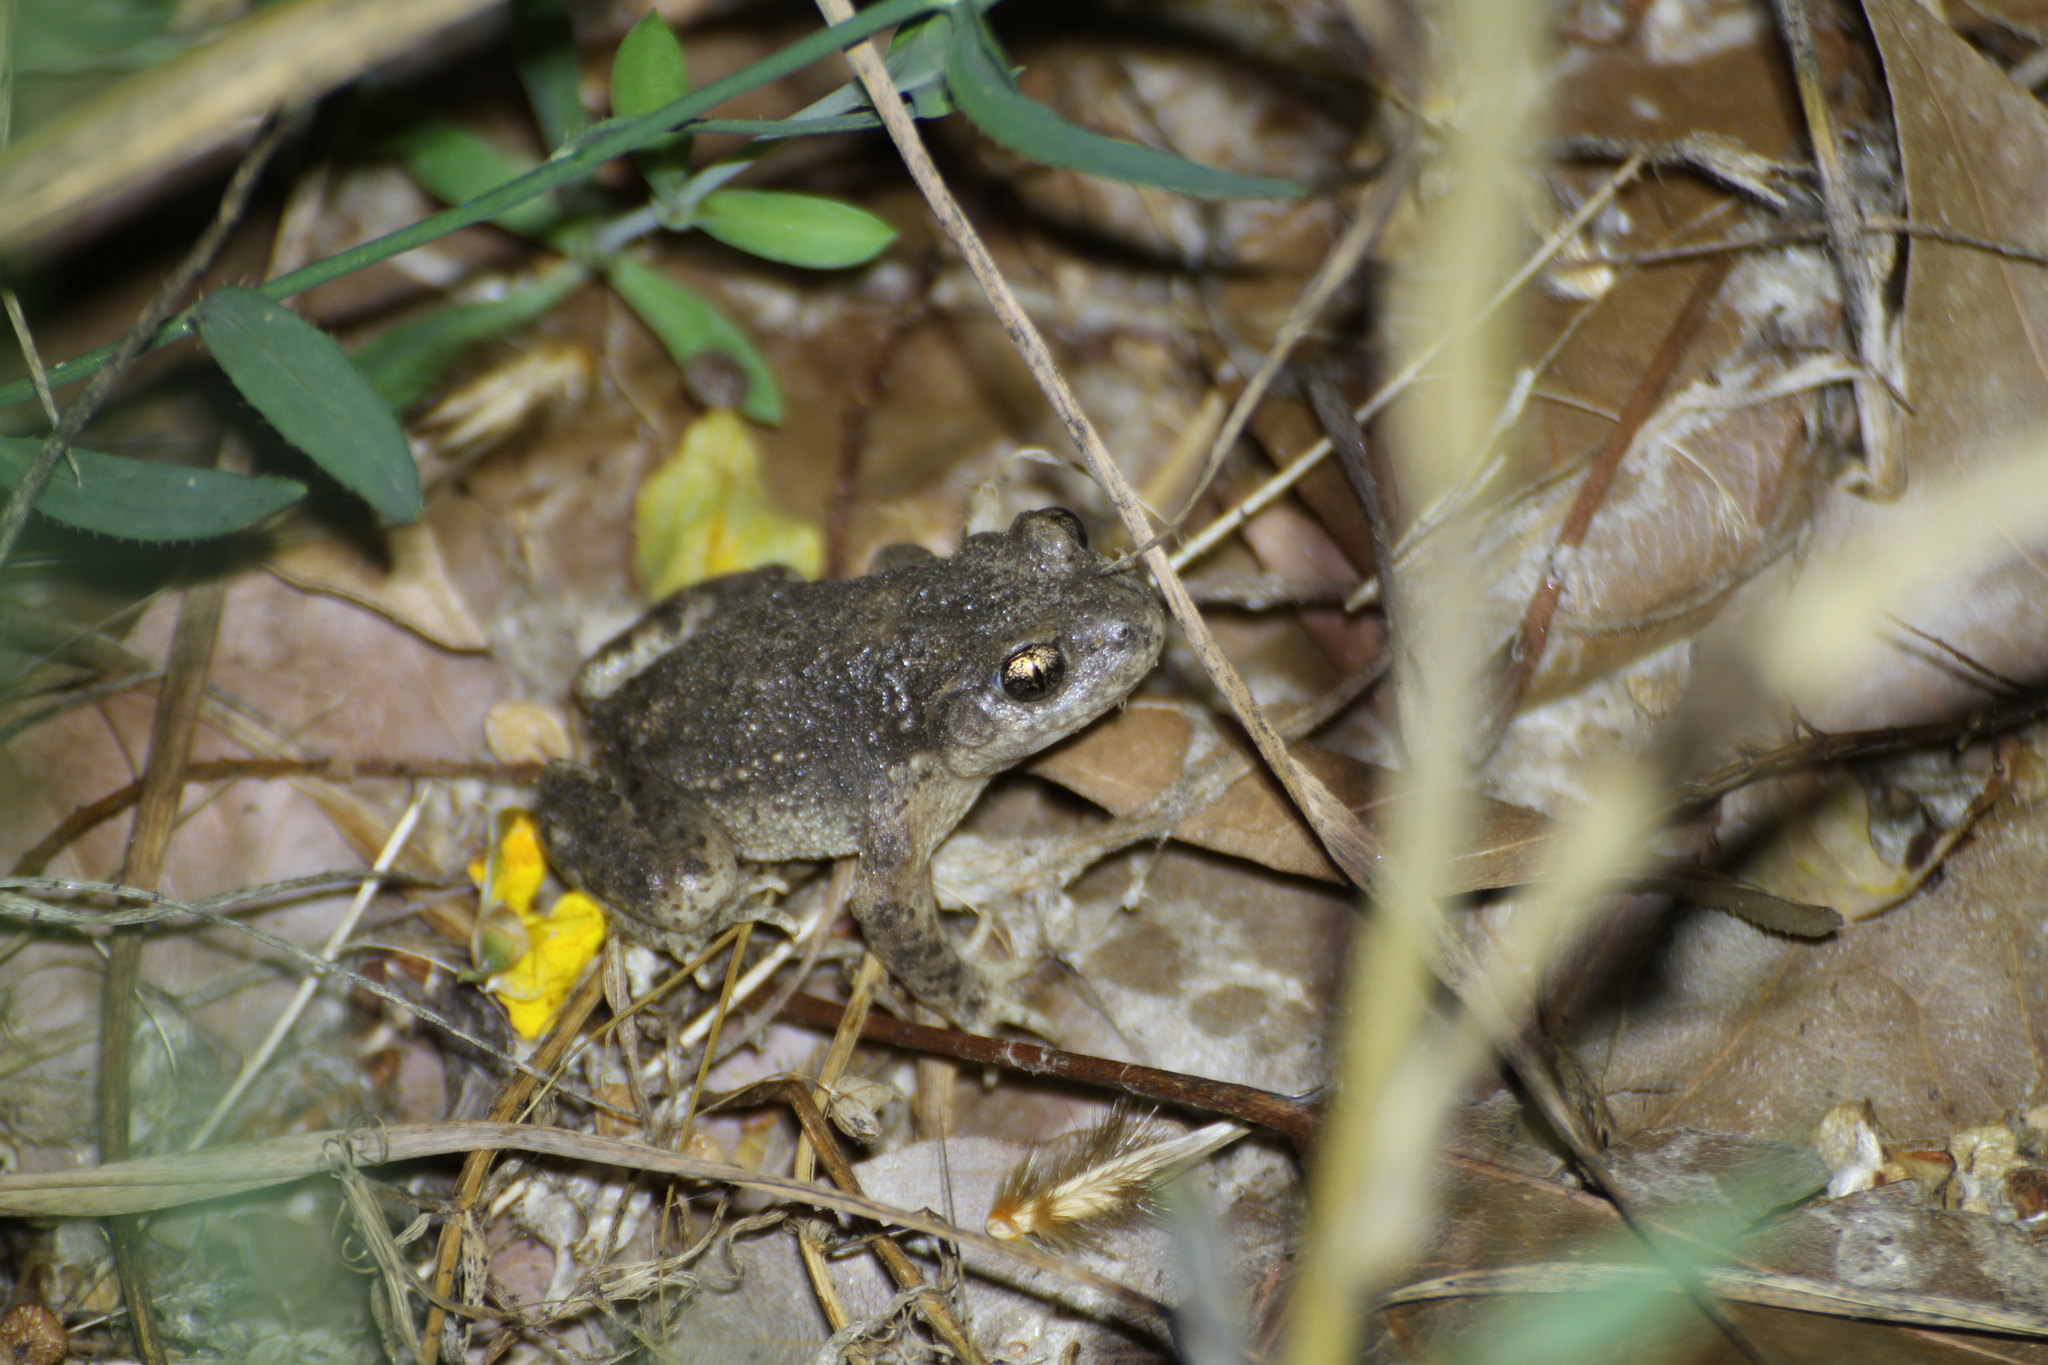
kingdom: Animalia
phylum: Chordata
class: Amphibia
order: Anura
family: Alytidae
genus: Alytes
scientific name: Alytes obstetricans
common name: Midwife toad
